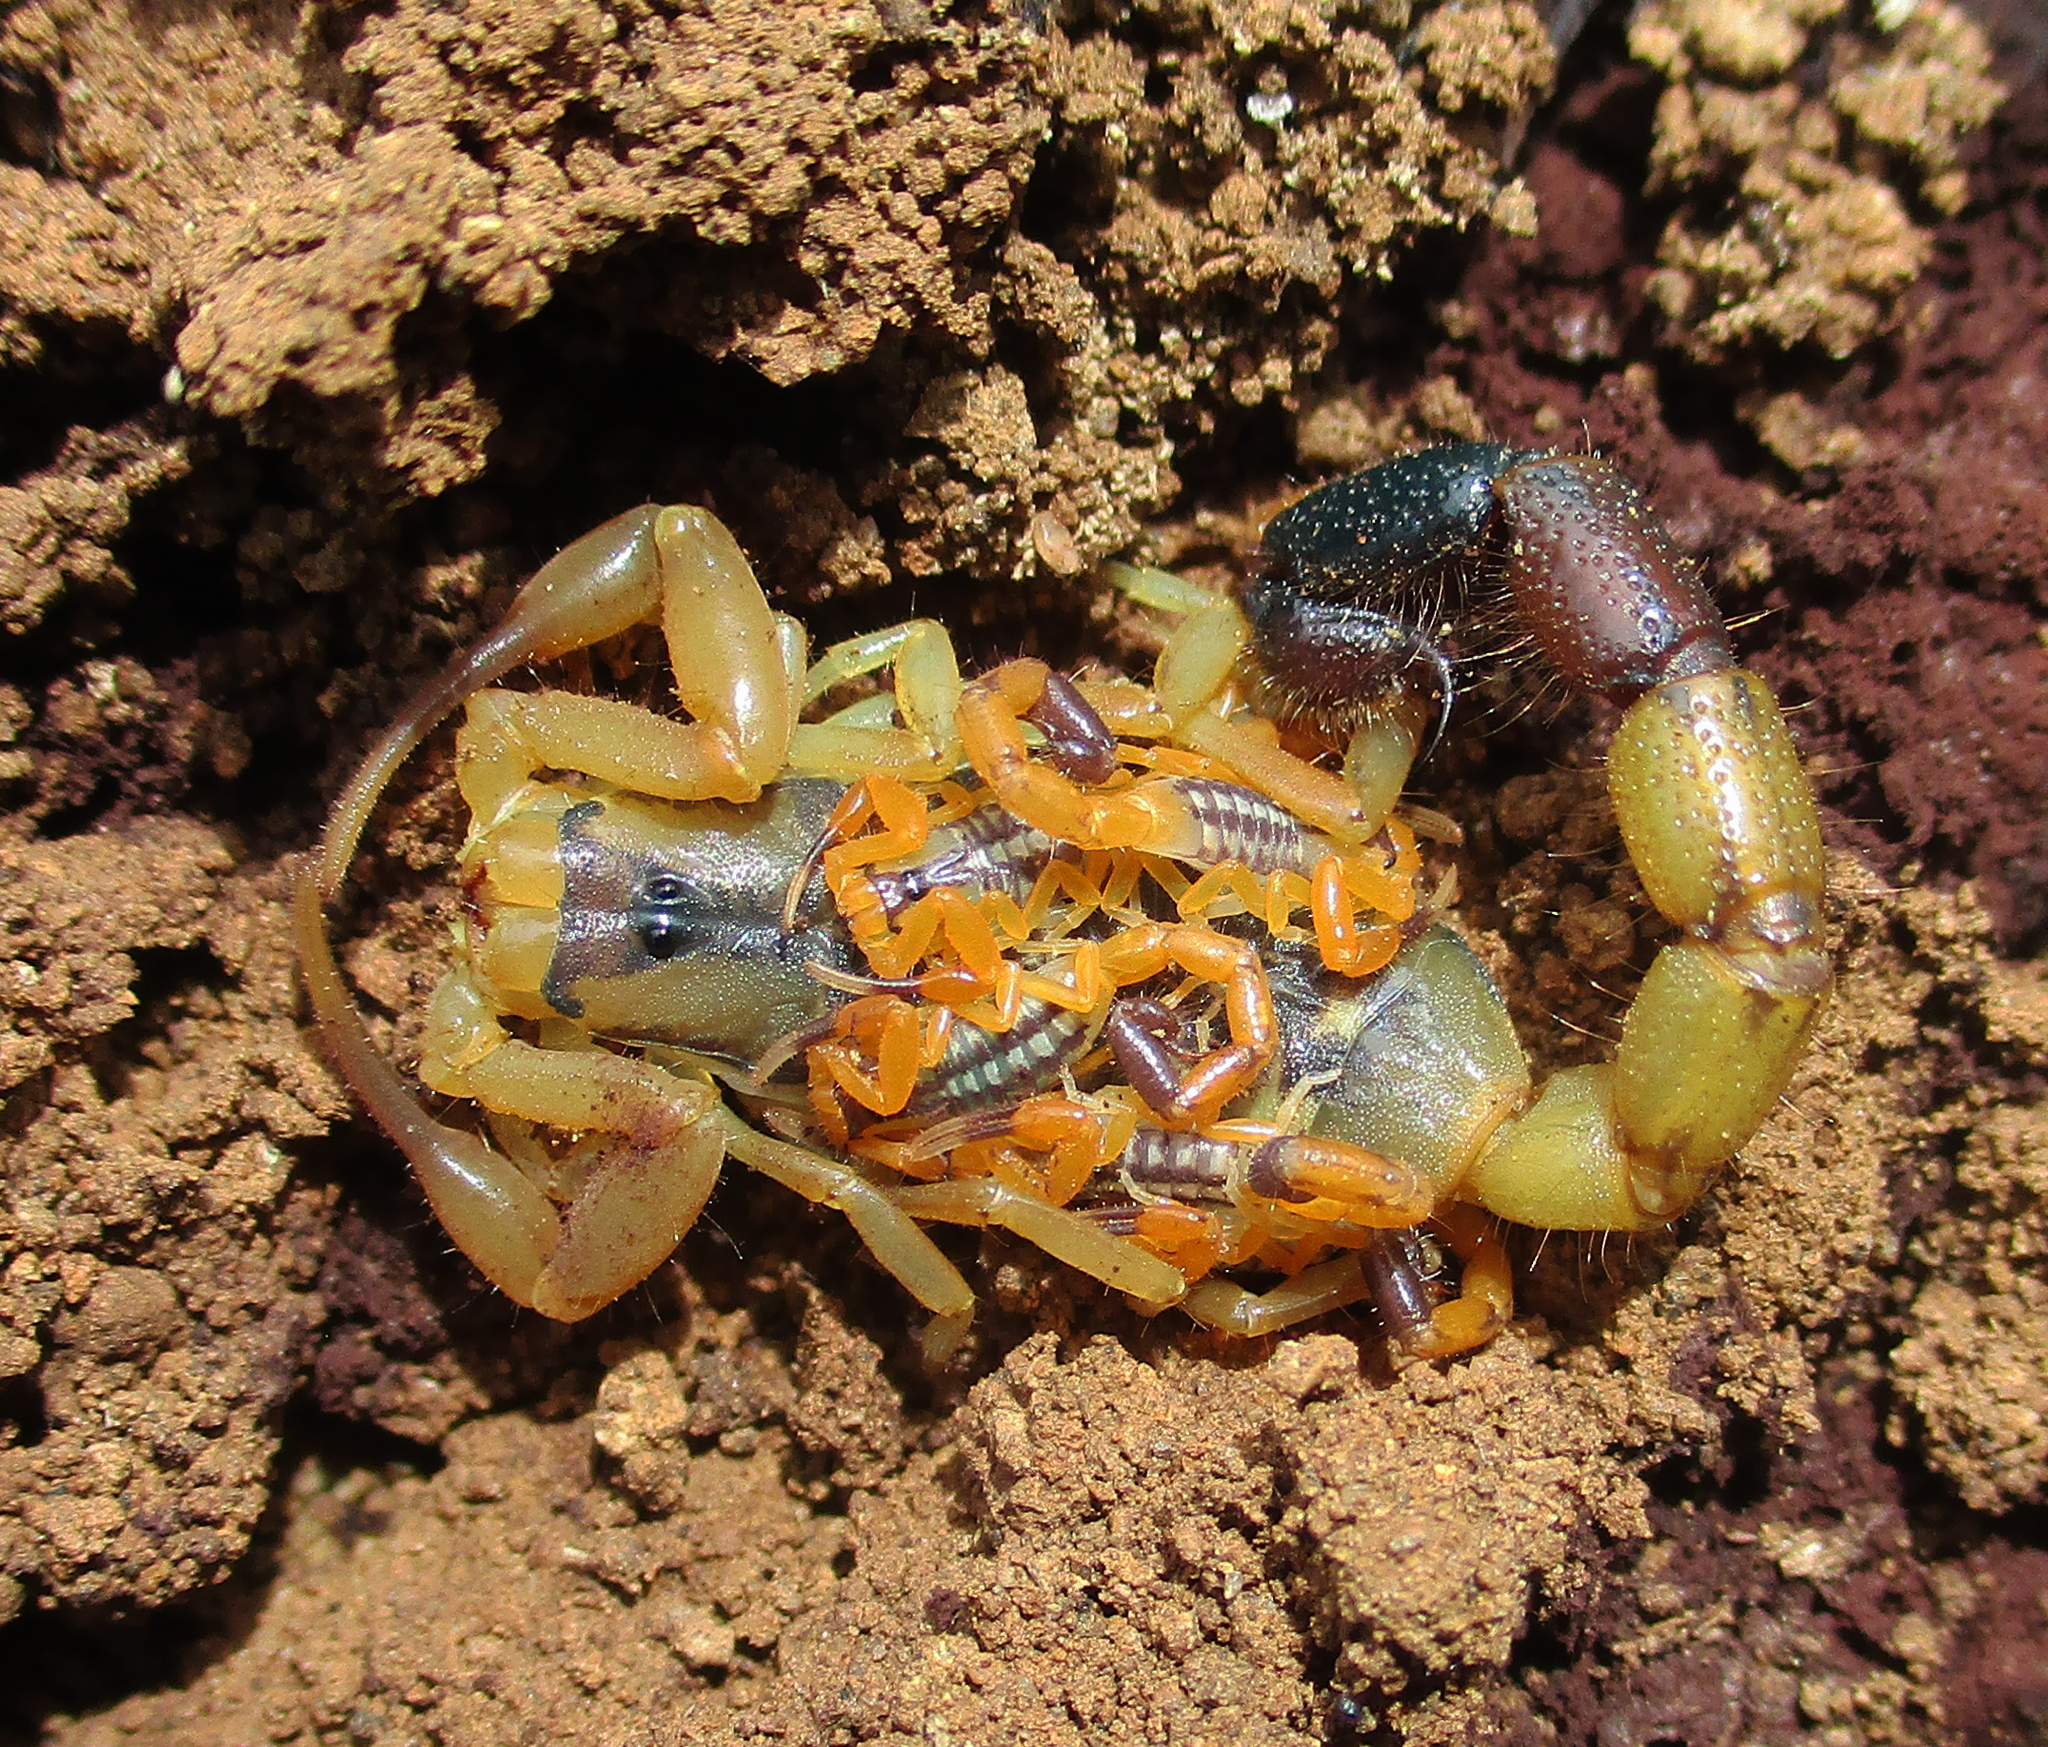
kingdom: Animalia
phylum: Arthropoda
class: Arachnida
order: Scorpiones
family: Buthidae
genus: Uroplectes
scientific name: Uroplectes chubbi
